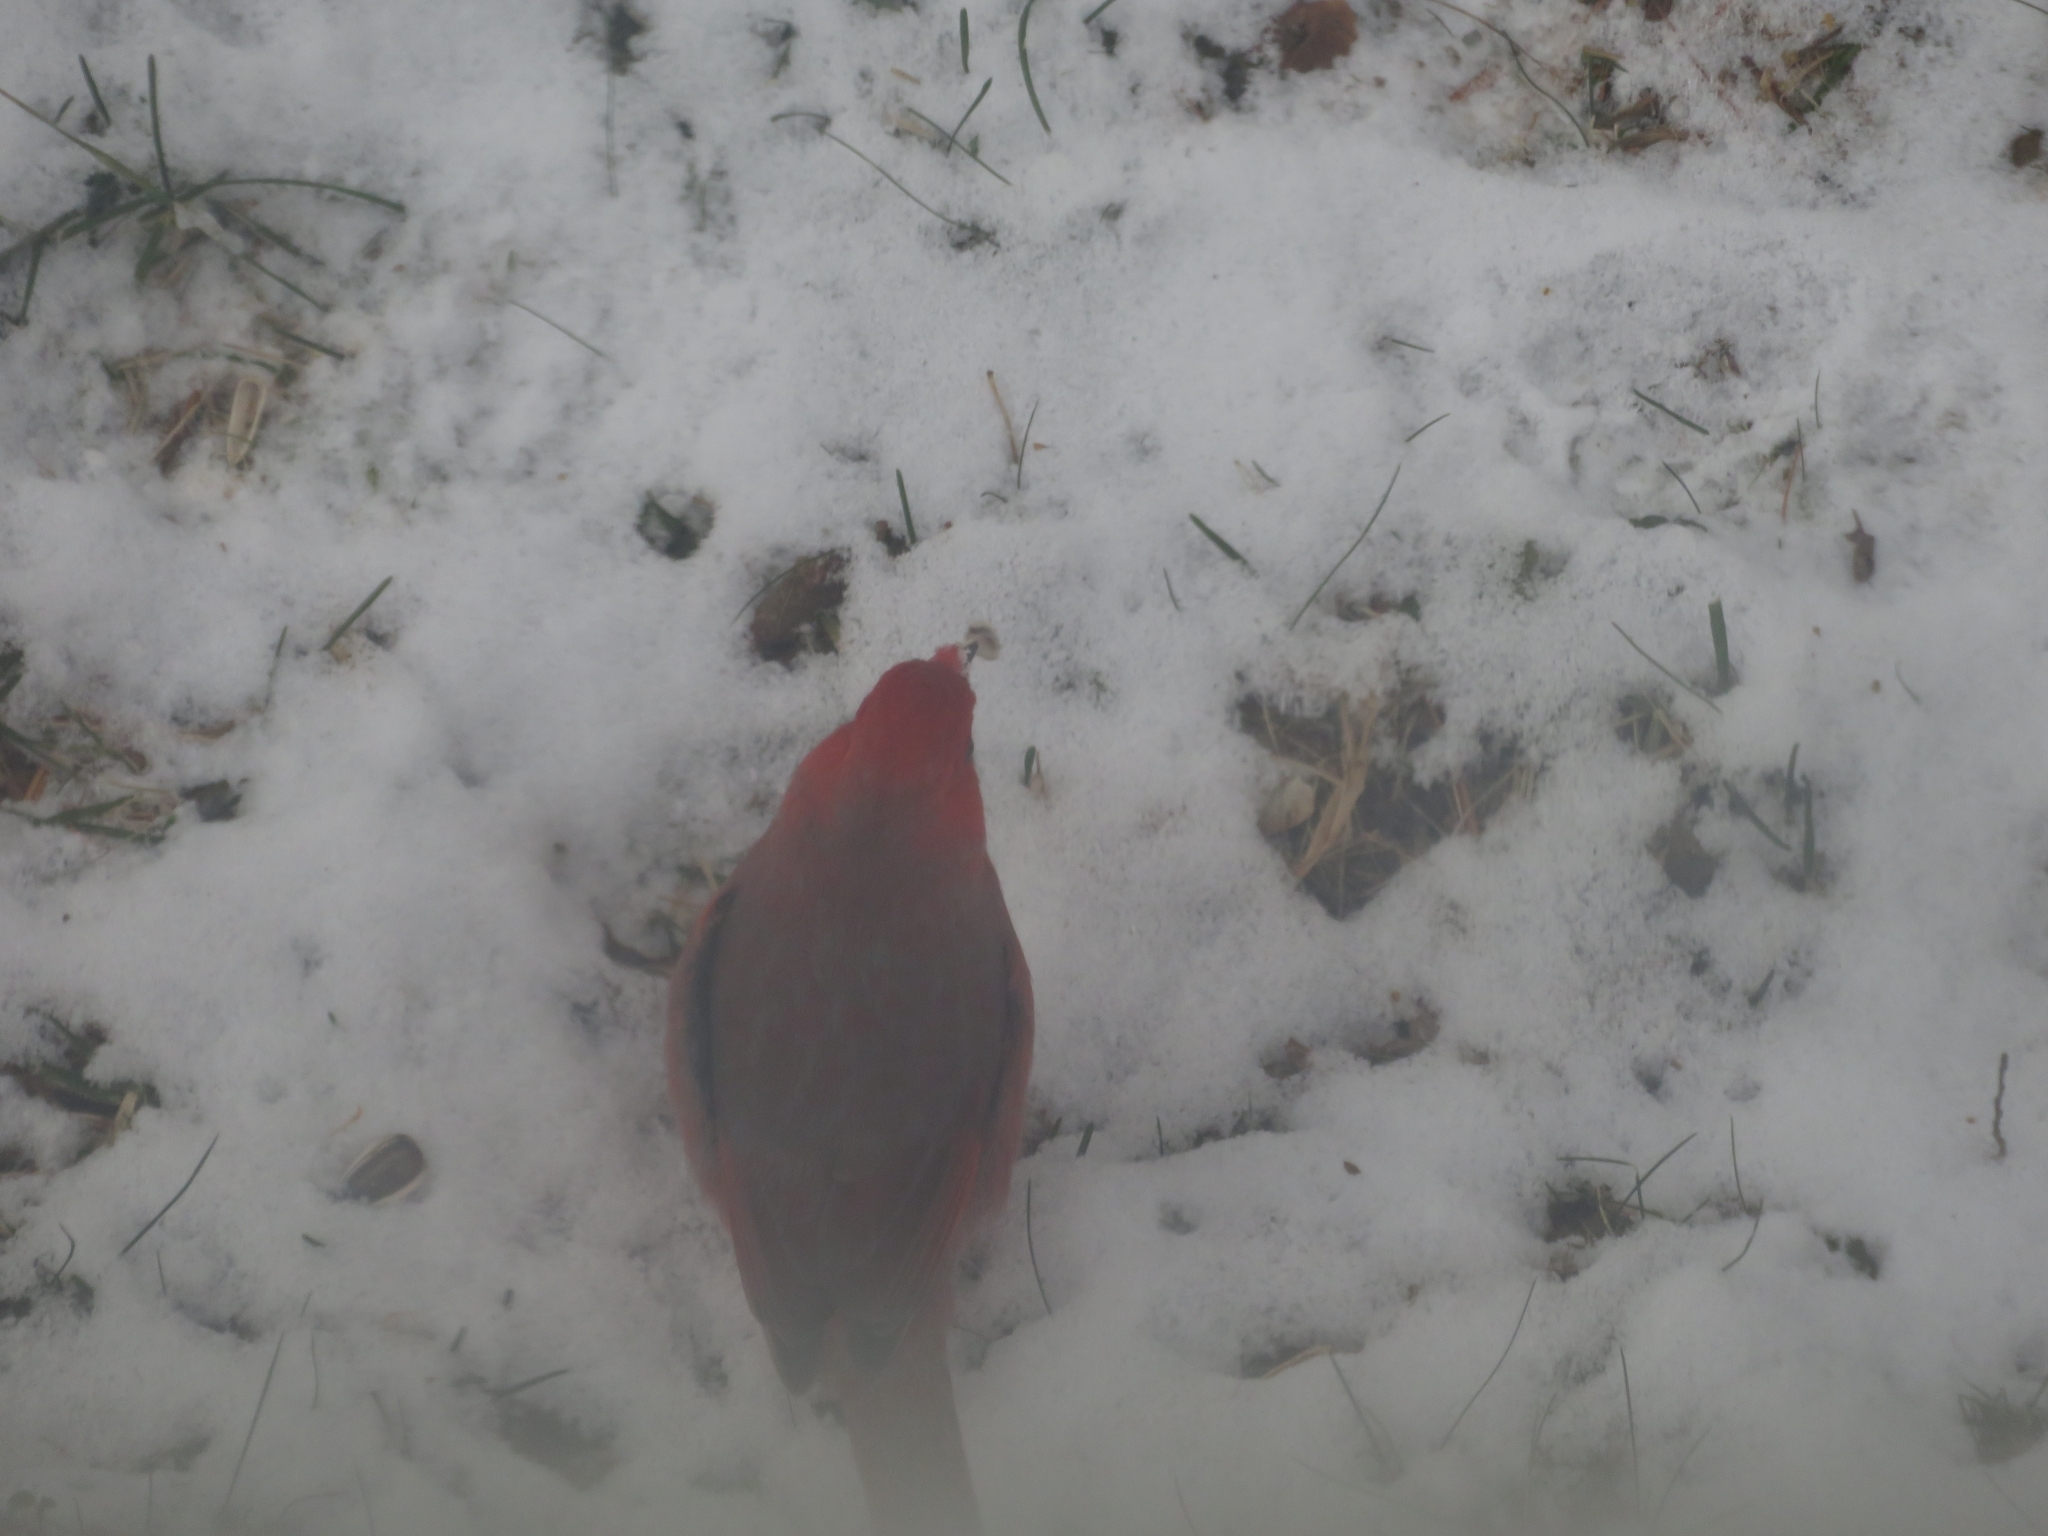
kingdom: Animalia
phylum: Chordata
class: Aves
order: Passeriformes
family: Cardinalidae
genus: Cardinalis
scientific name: Cardinalis cardinalis
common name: Northern cardinal
